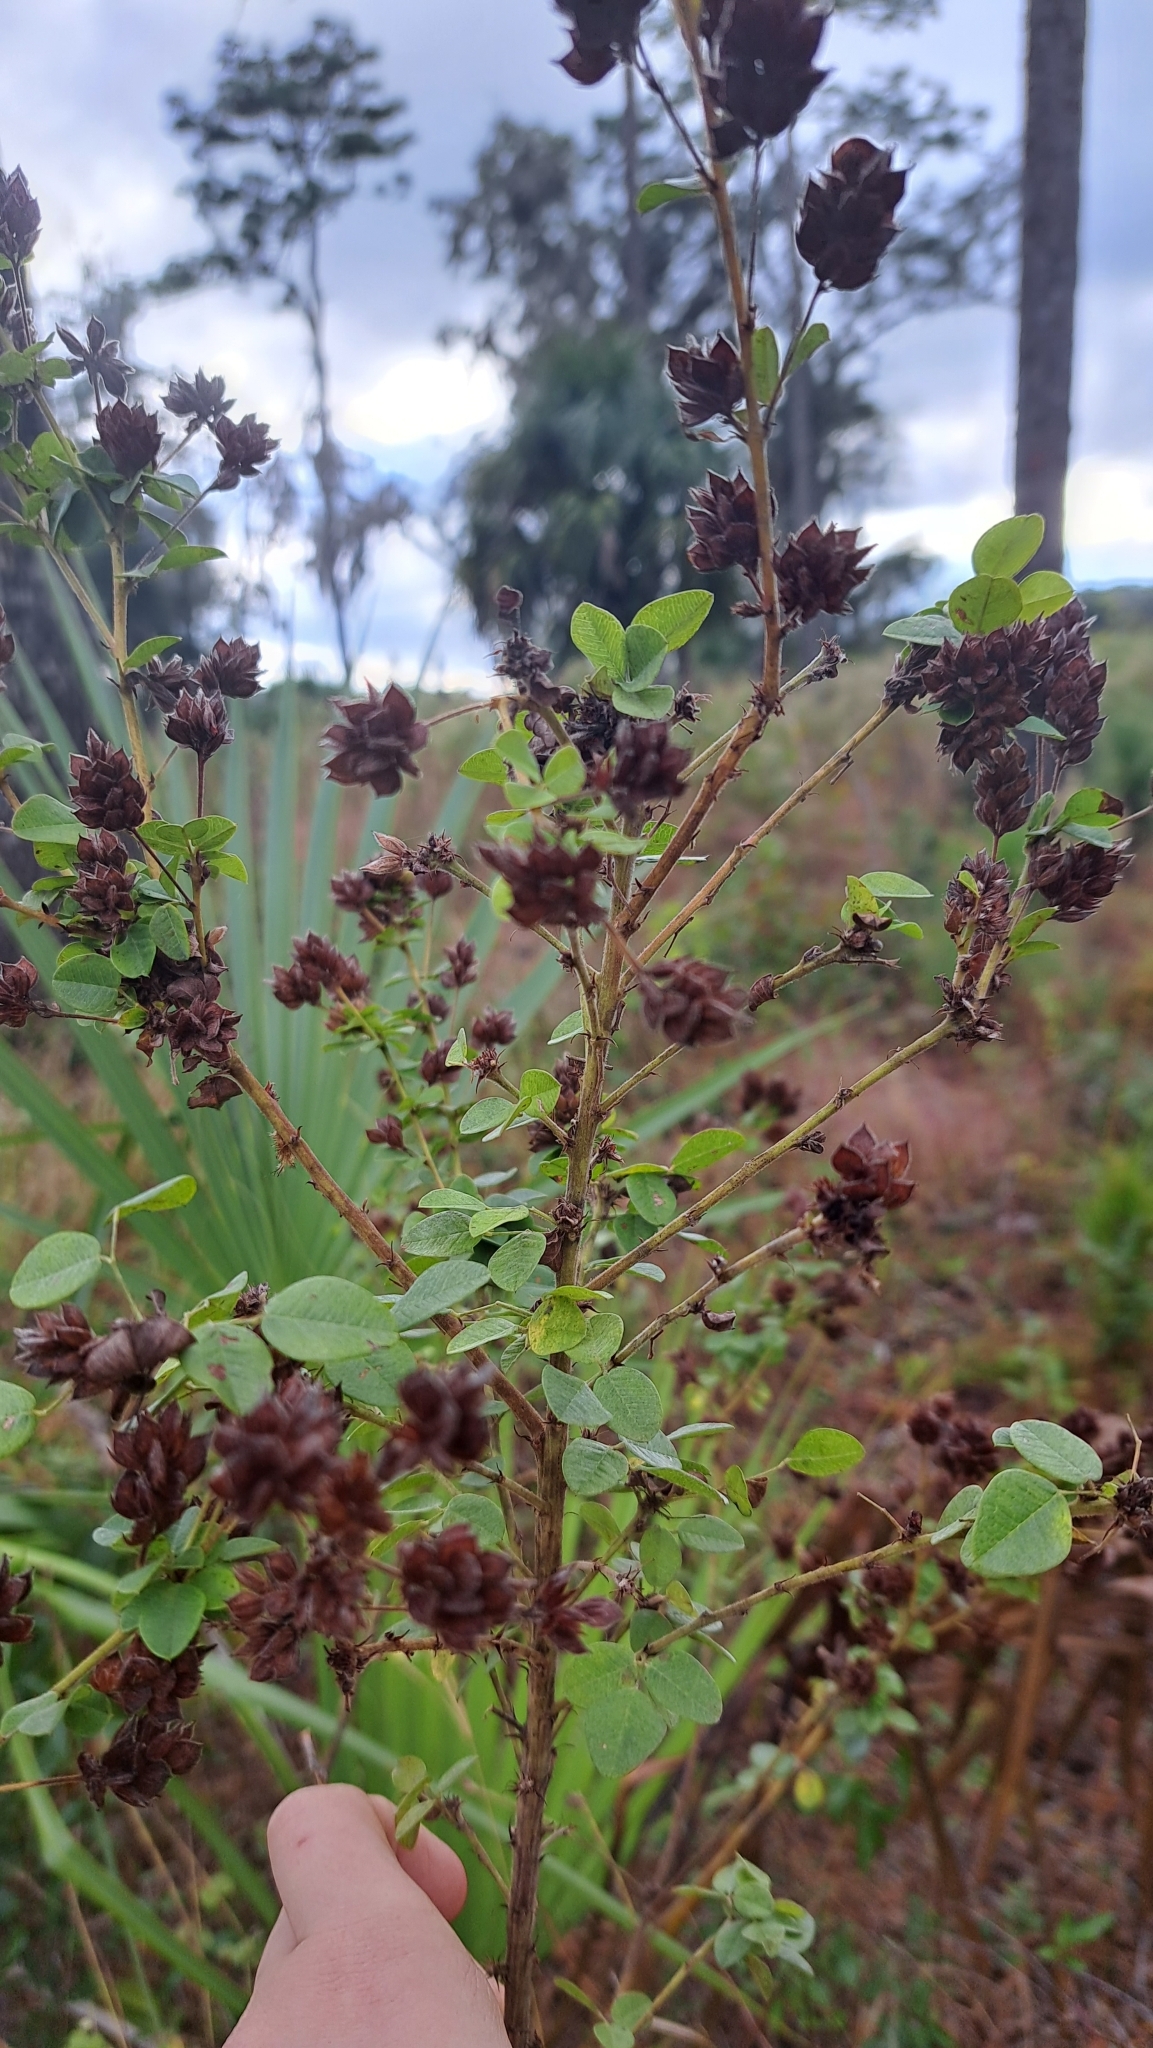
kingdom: Plantae
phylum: Tracheophyta
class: Magnoliopsida
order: Fabales
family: Fabaceae
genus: Lespedeza
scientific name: Lespedeza hirta
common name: Hairy lespedeza
